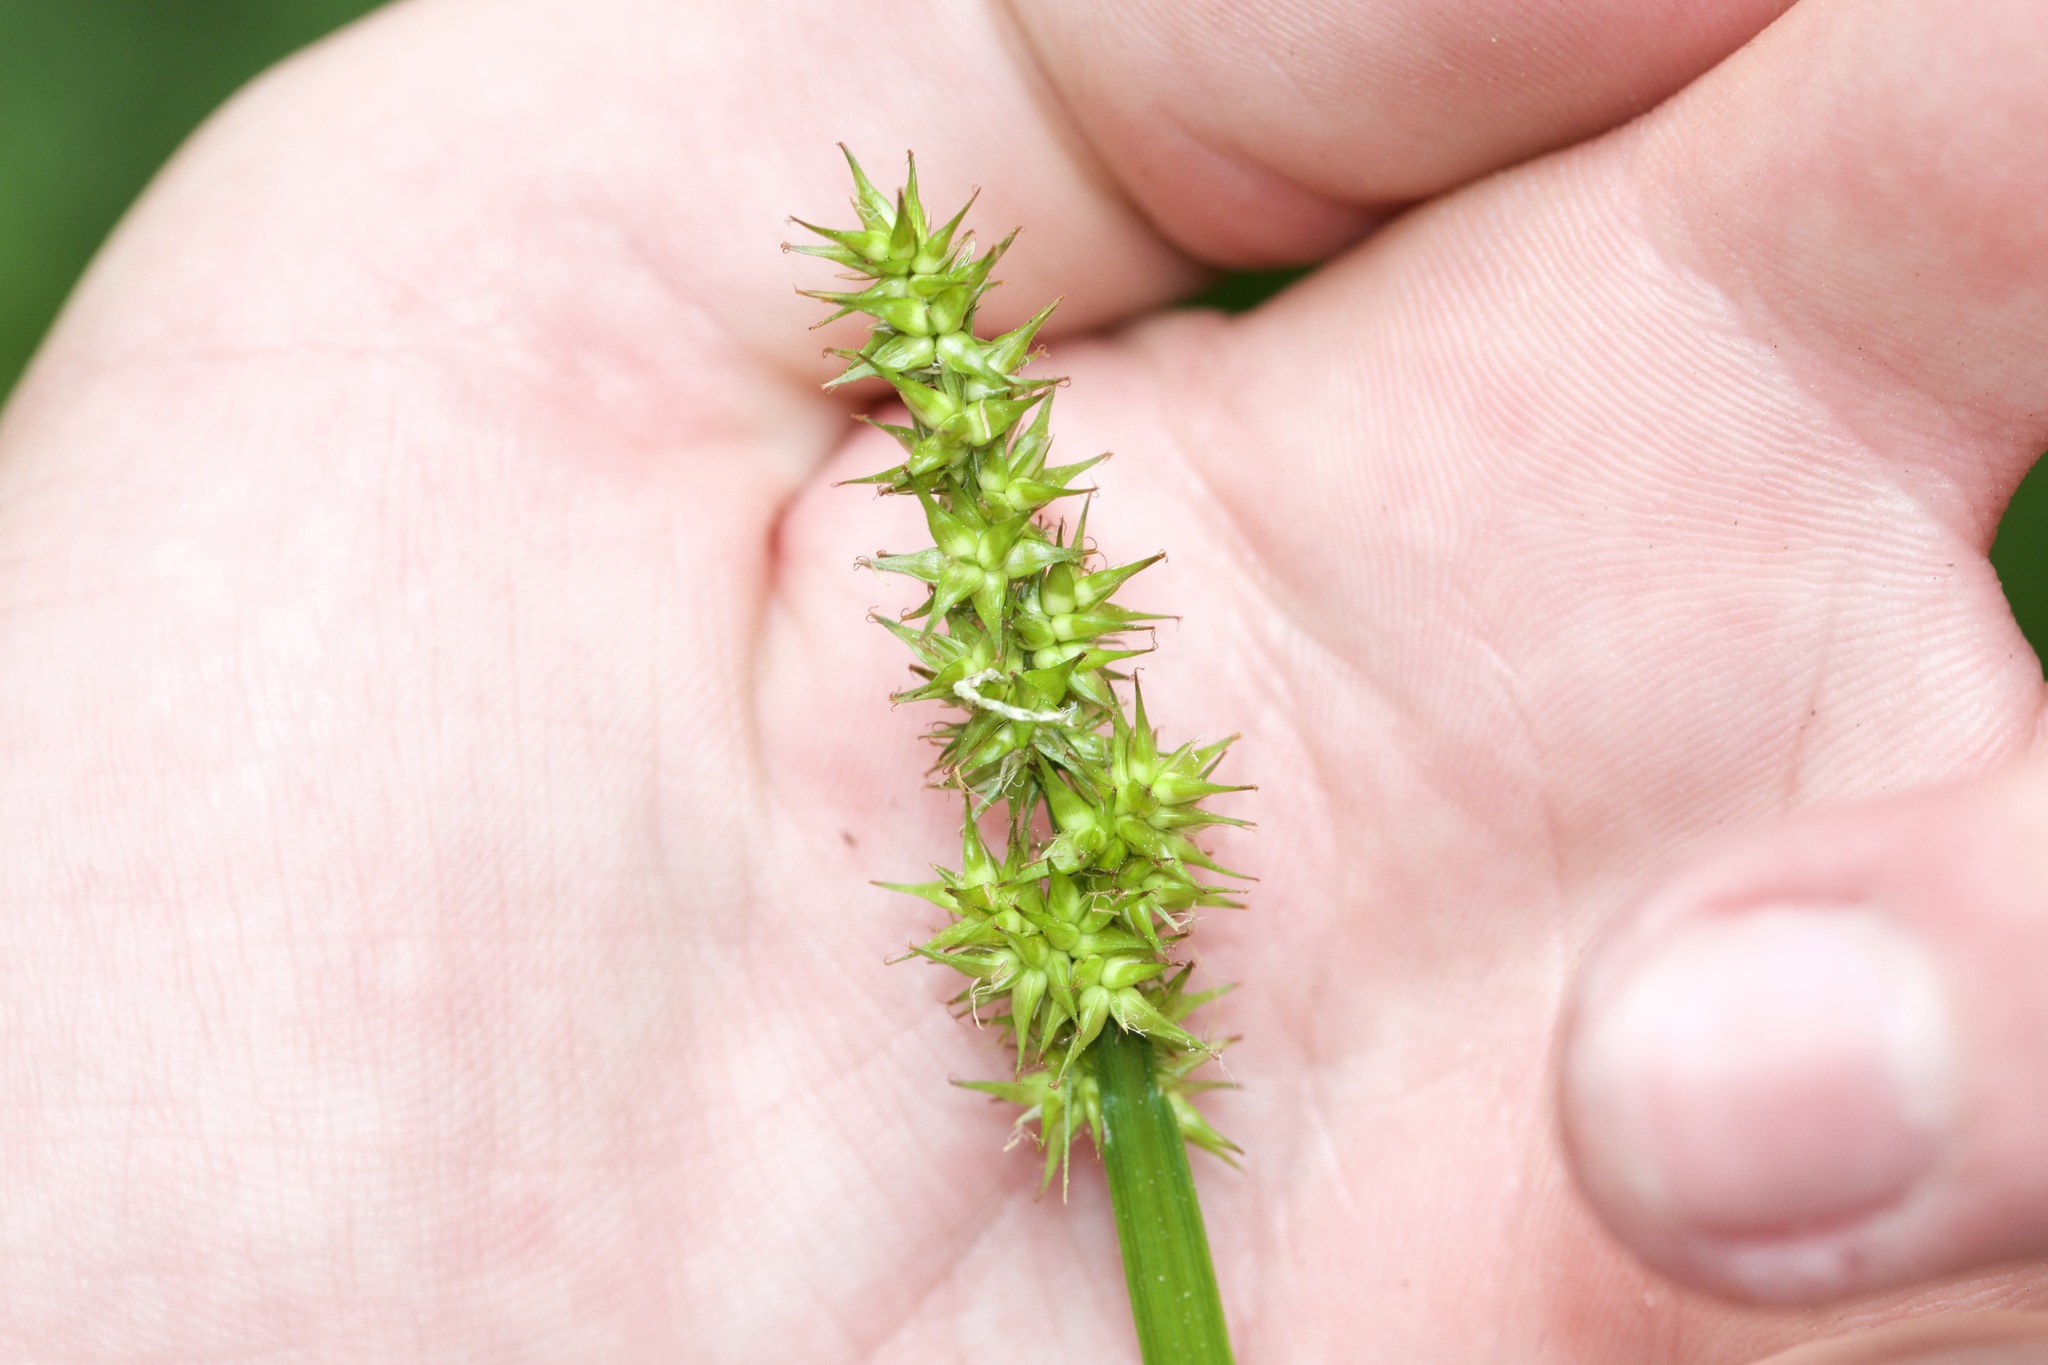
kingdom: Plantae
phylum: Tracheophyta
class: Liliopsida
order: Poales
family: Cyperaceae
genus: Carex
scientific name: Carex stipata
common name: Awl-fruited sedge
